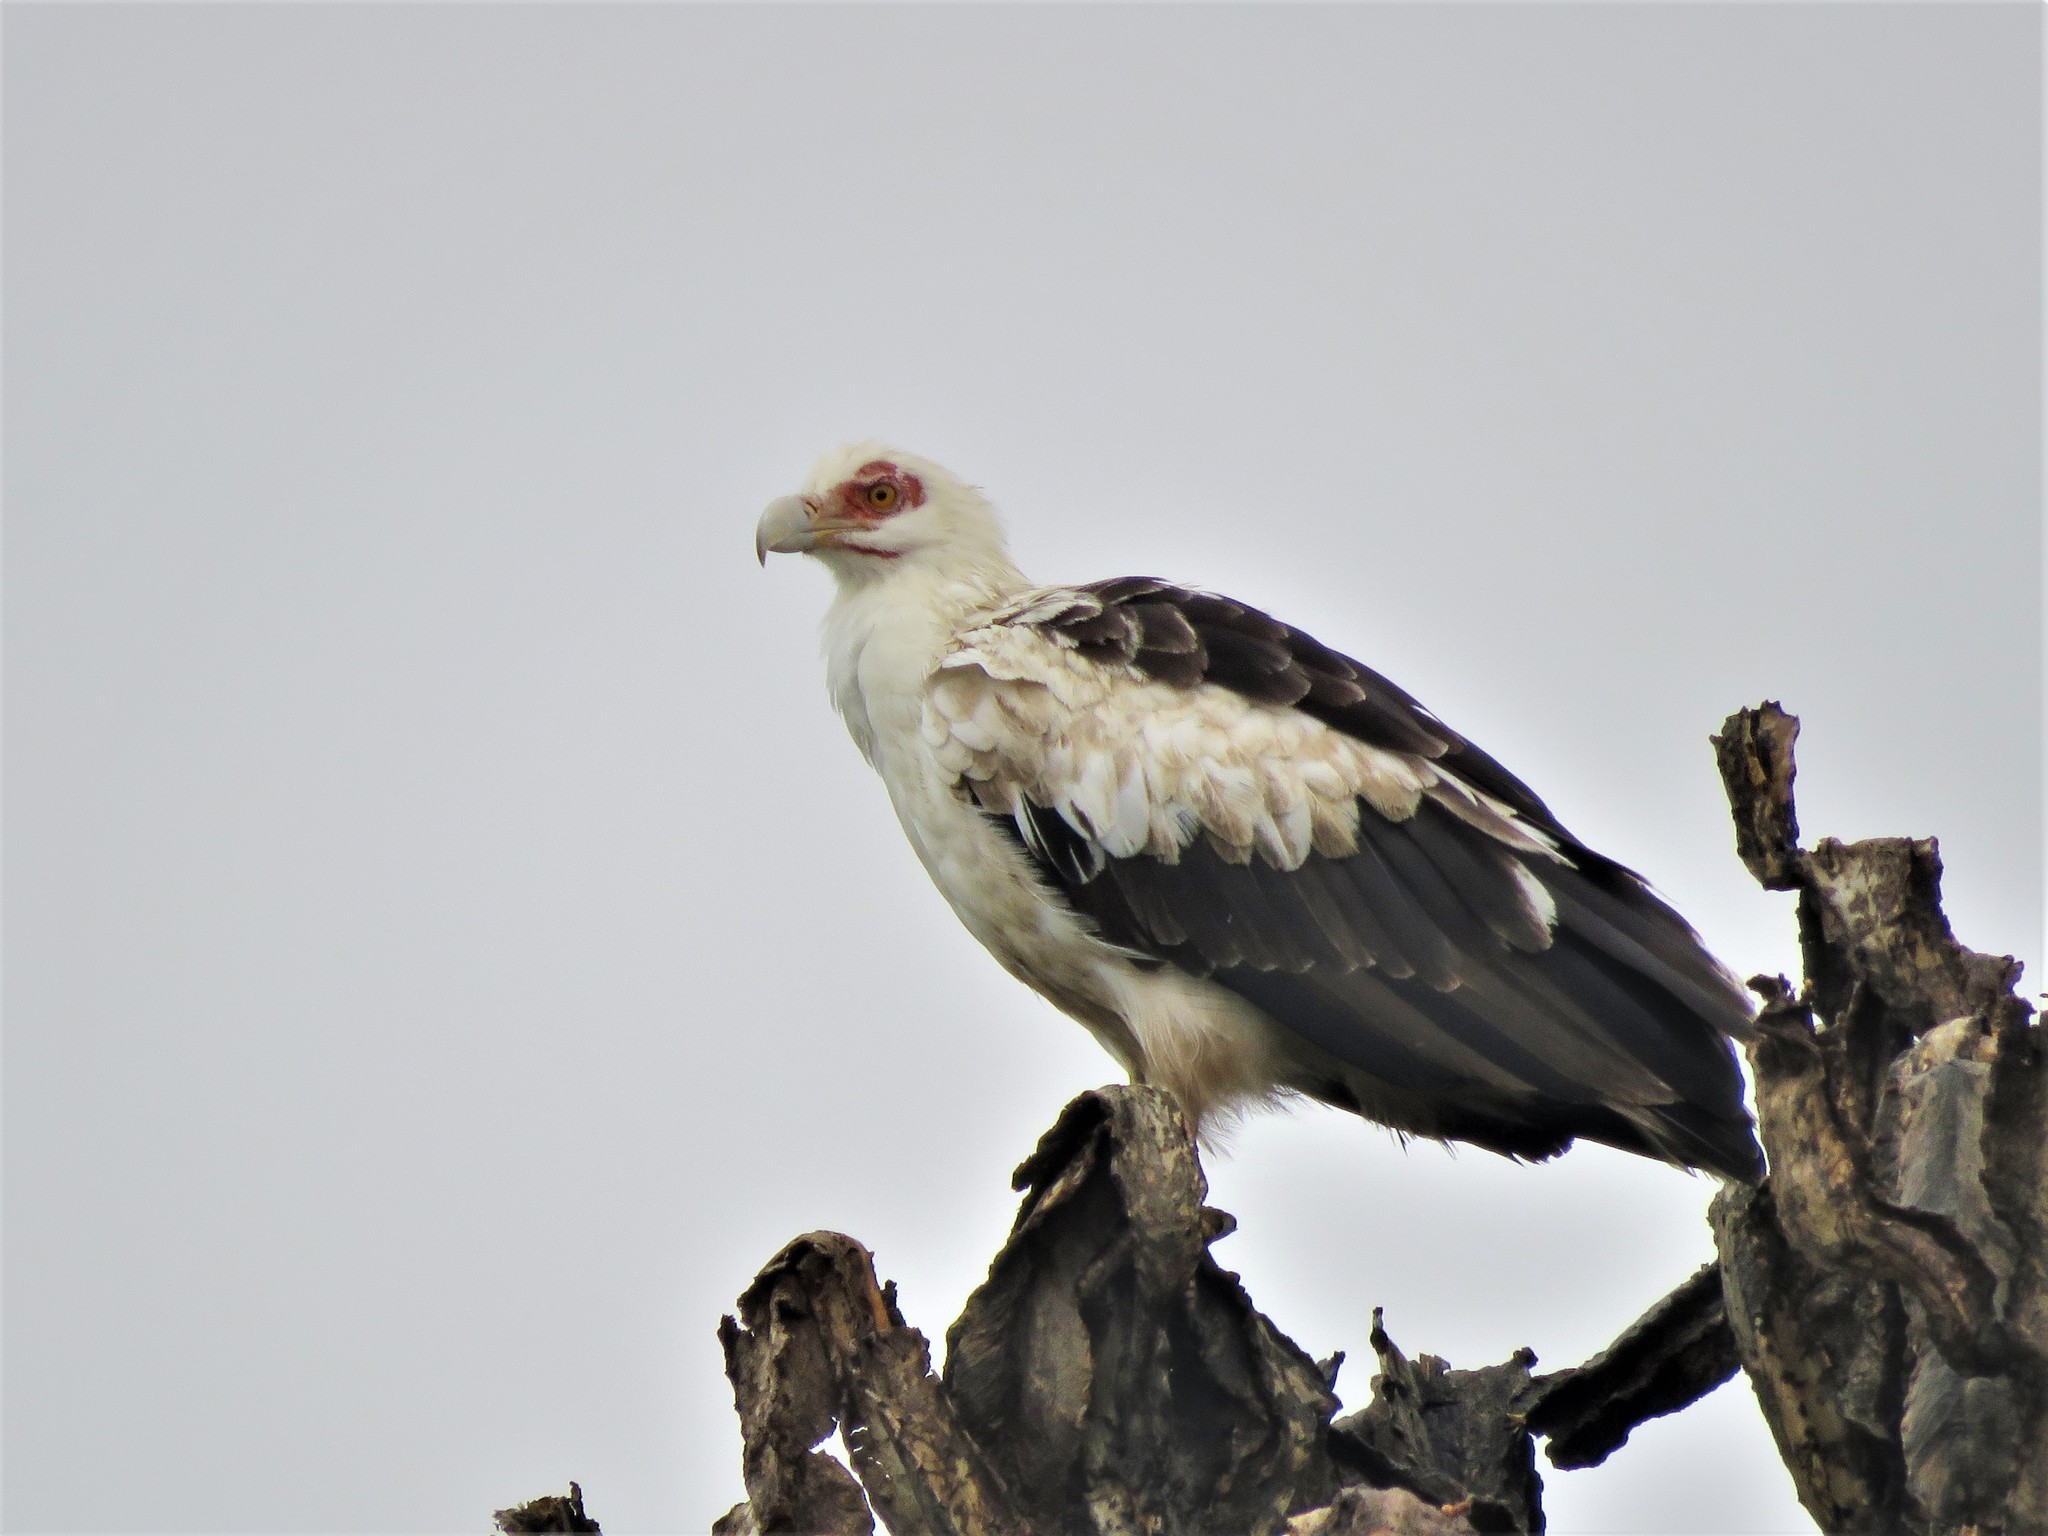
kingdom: Animalia
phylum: Chordata
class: Aves
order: Accipitriformes
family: Accipitridae
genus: Gypohierax
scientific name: Gypohierax angolensis
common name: Palm-nut vulture
